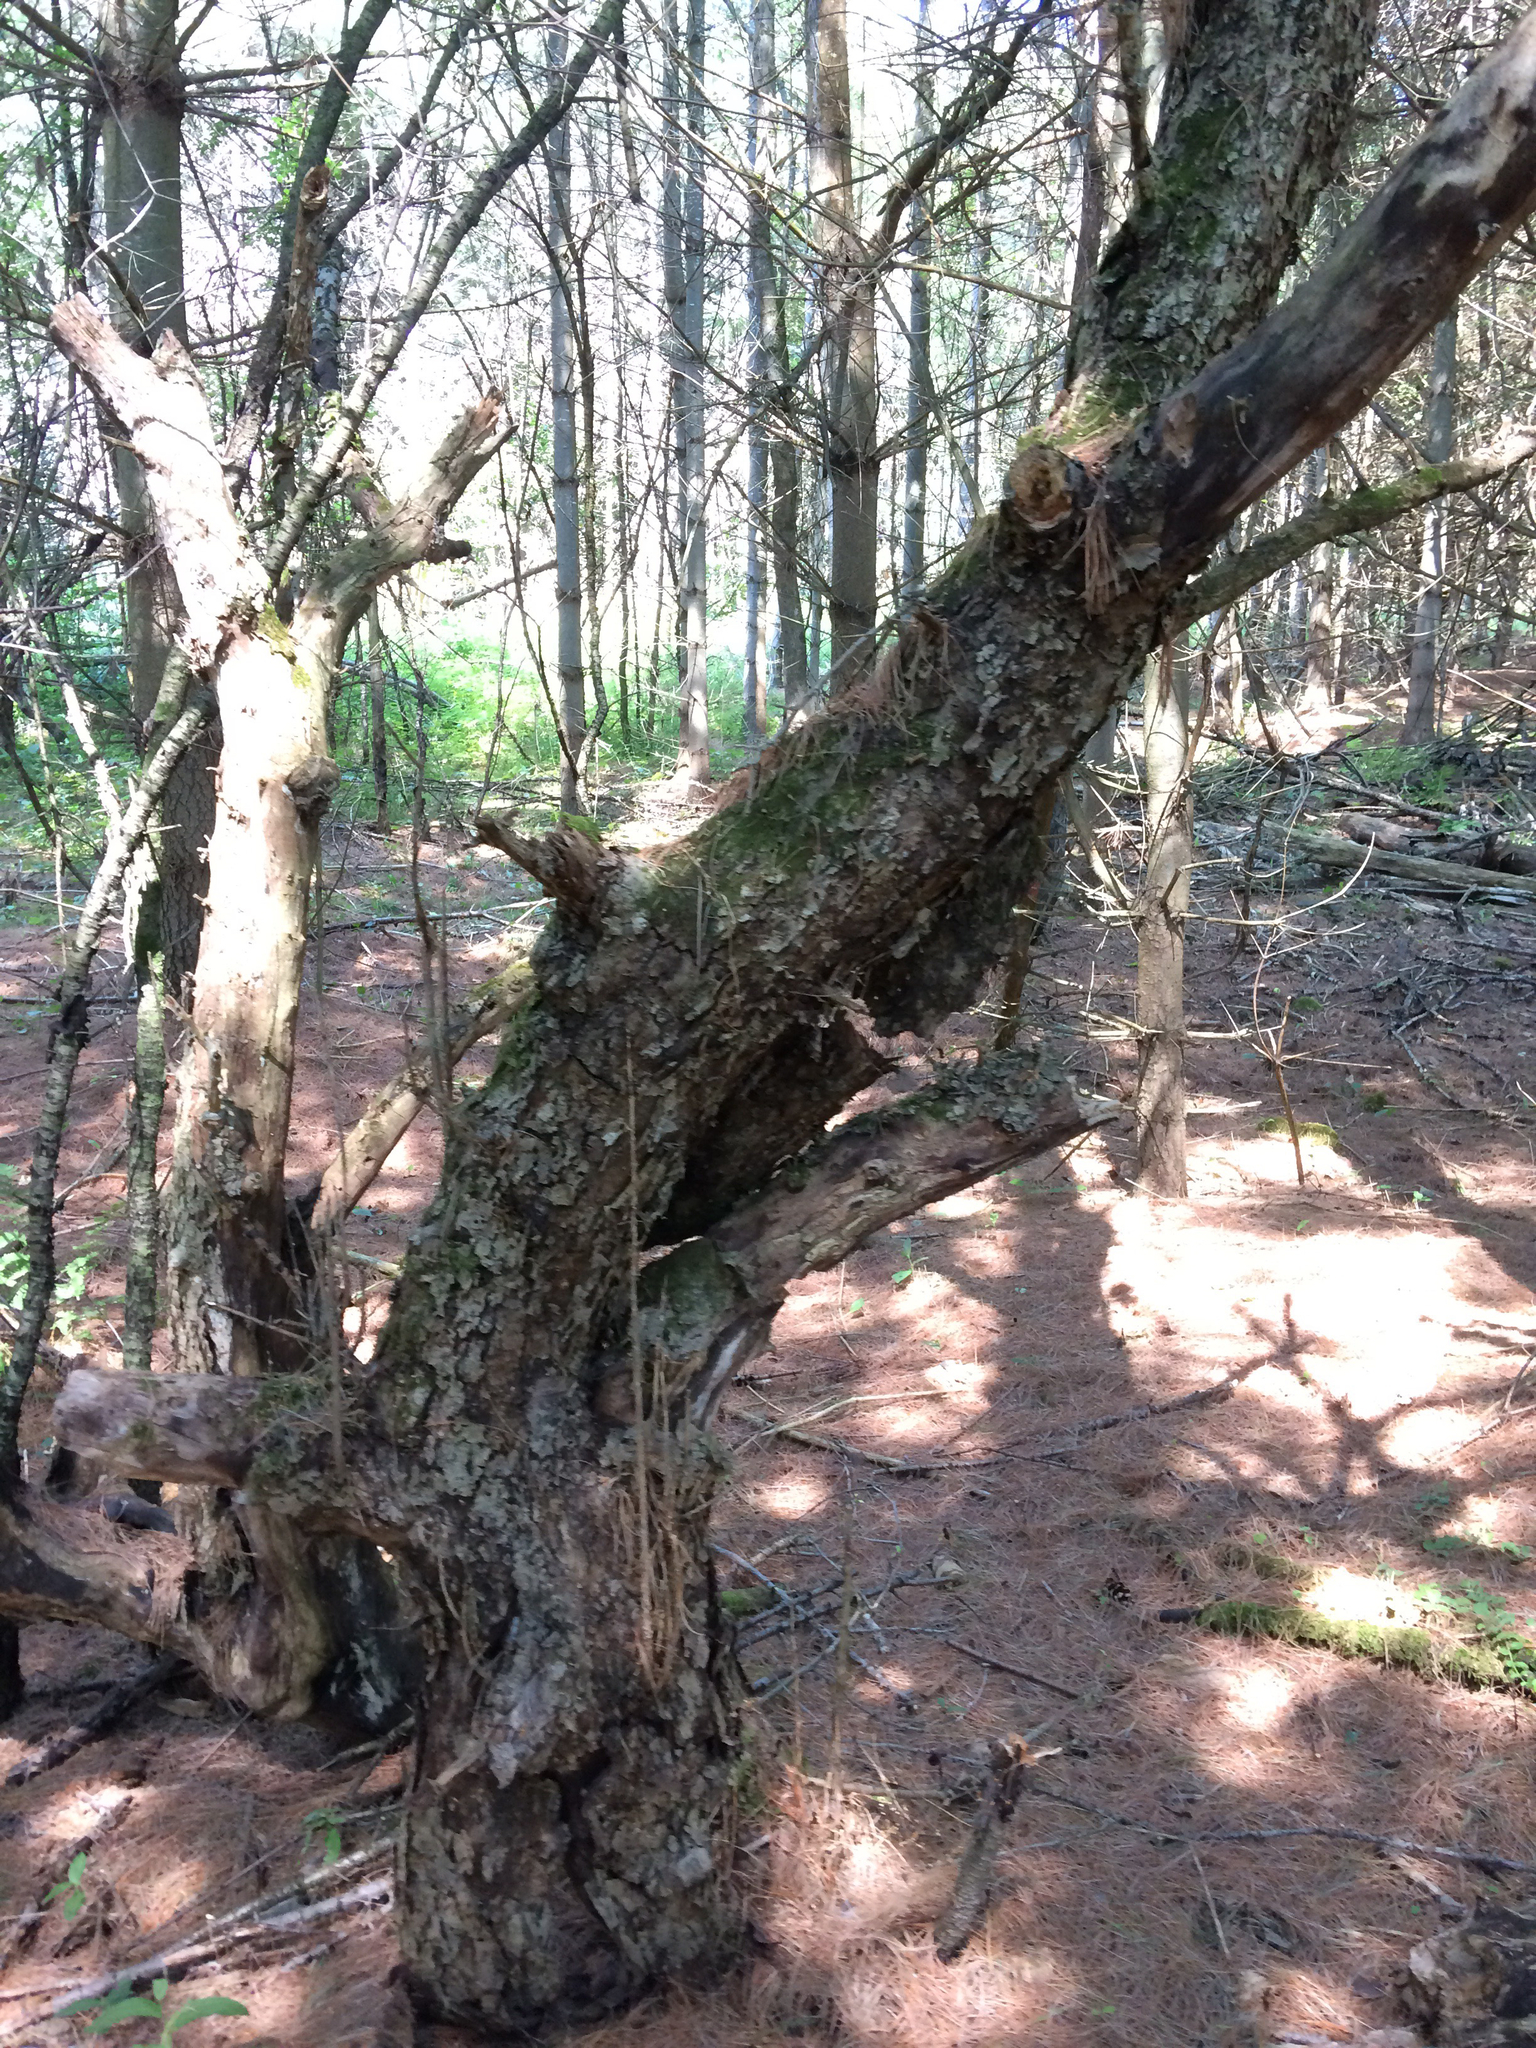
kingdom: Plantae
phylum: Tracheophyta
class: Magnoliopsida
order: Rosales
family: Rosaceae
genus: Malus
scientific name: Malus domestica
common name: Apple
